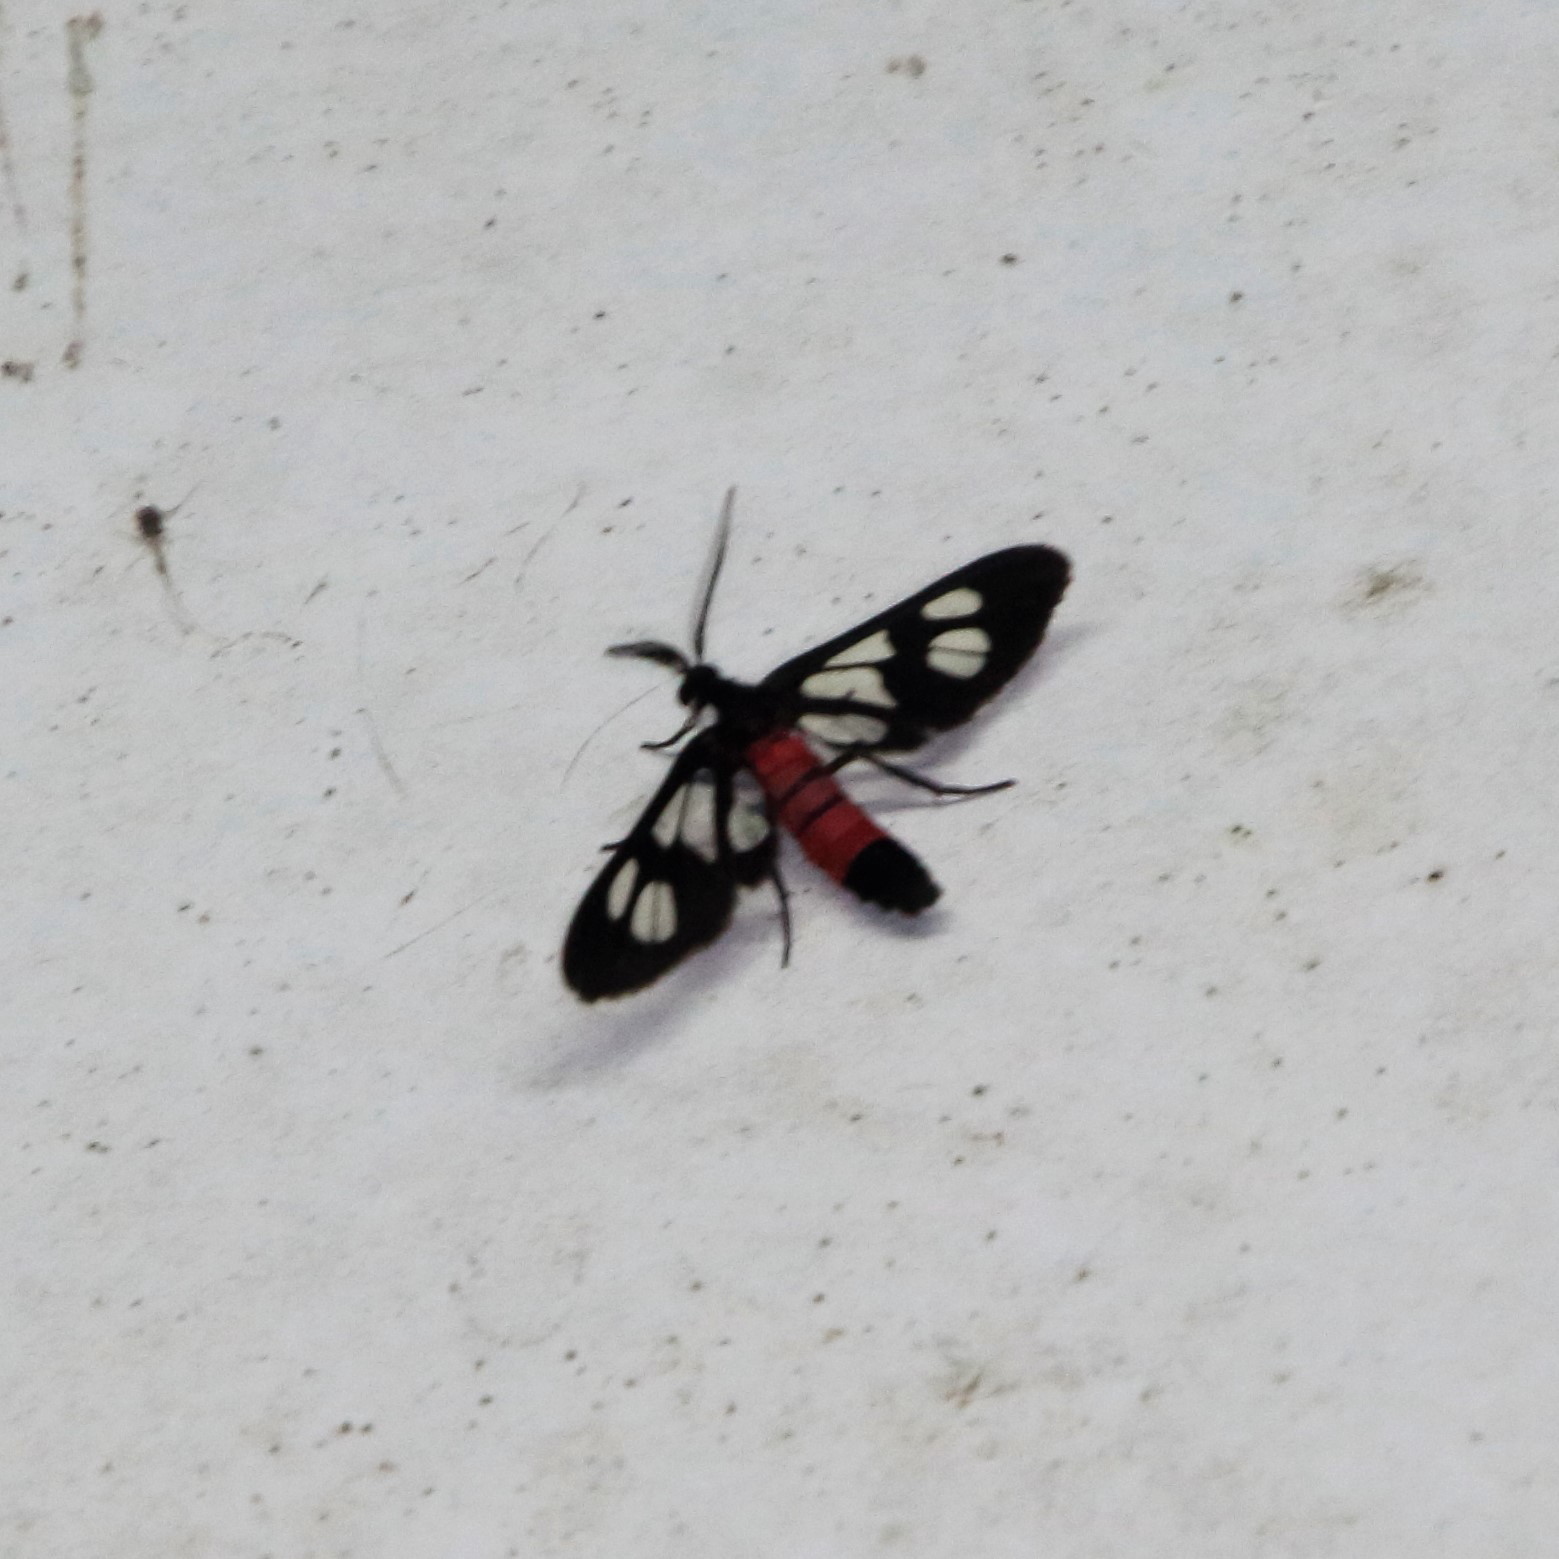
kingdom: Animalia
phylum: Arthropoda
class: Insecta
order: Lepidoptera
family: Erebidae
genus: Amata
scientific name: Amata leopoldi
